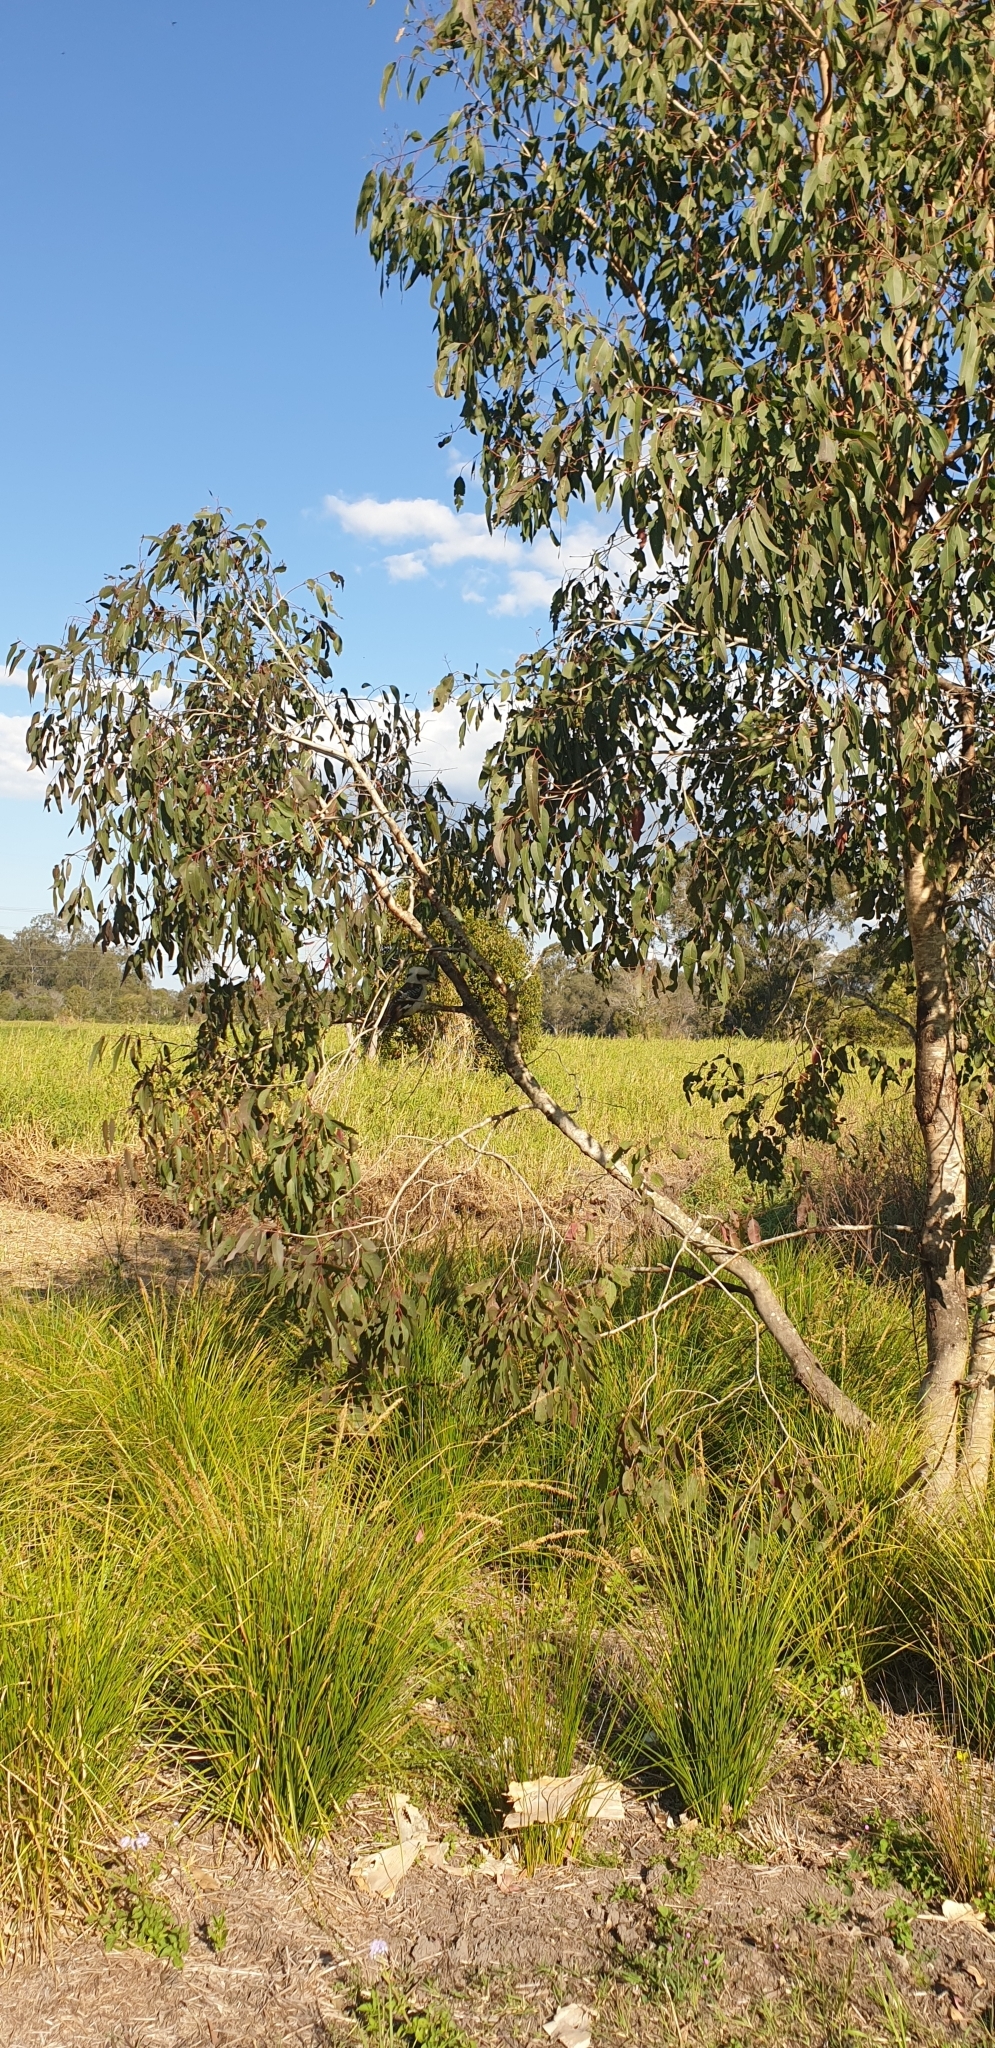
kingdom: Animalia
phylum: Chordata
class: Aves
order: Coraciiformes
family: Alcedinidae
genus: Dacelo
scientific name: Dacelo novaeguineae
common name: Laughing kookaburra
